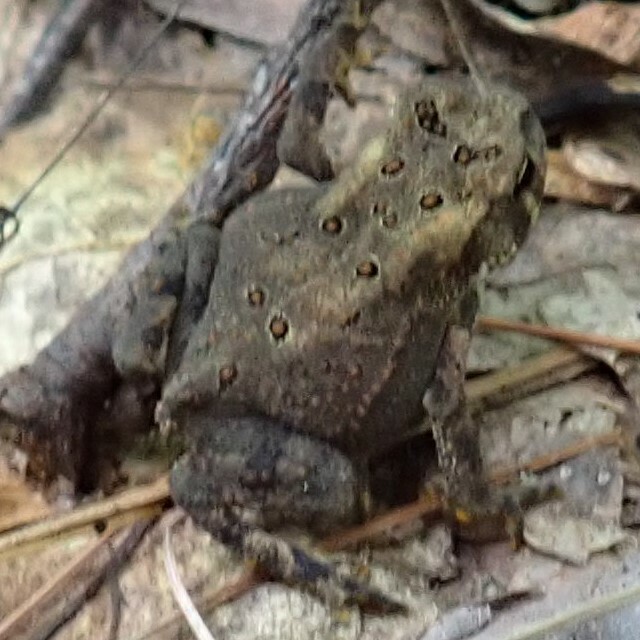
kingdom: Animalia
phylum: Chordata
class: Amphibia
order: Anura
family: Bufonidae
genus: Anaxyrus
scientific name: Anaxyrus americanus
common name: American toad
